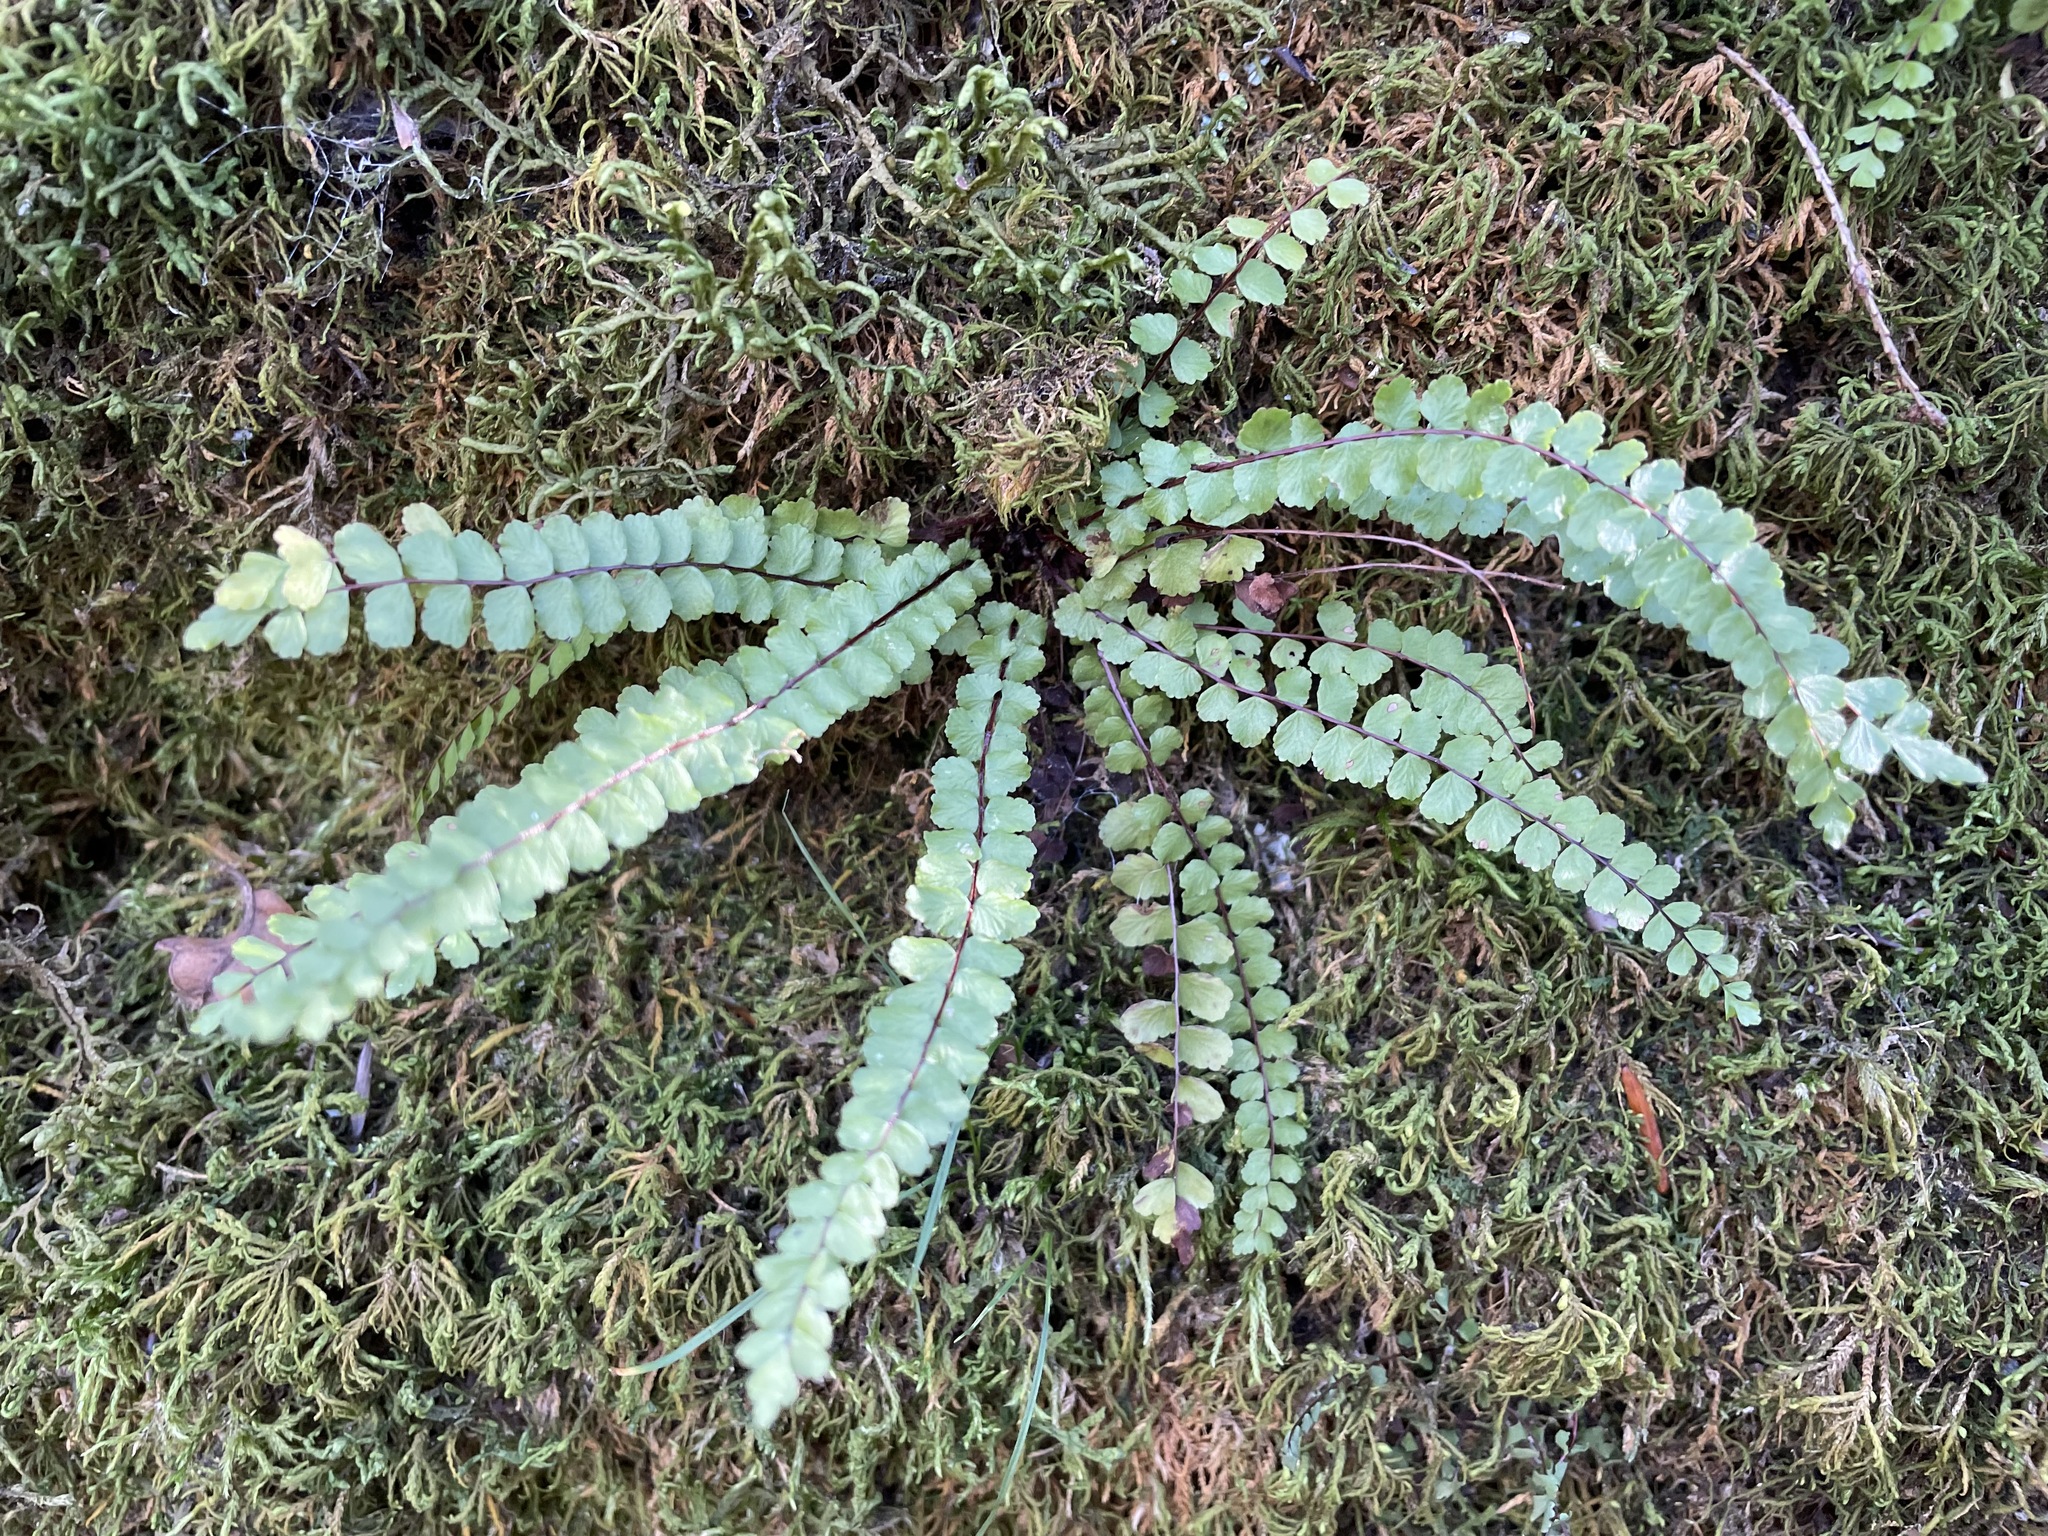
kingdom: Plantae
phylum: Tracheophyta
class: Polypodiopsida
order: Polypodiales
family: Aspleniaceae
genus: Asplenium
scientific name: Asplenium trichomanes
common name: Maidenhair spleenwort
